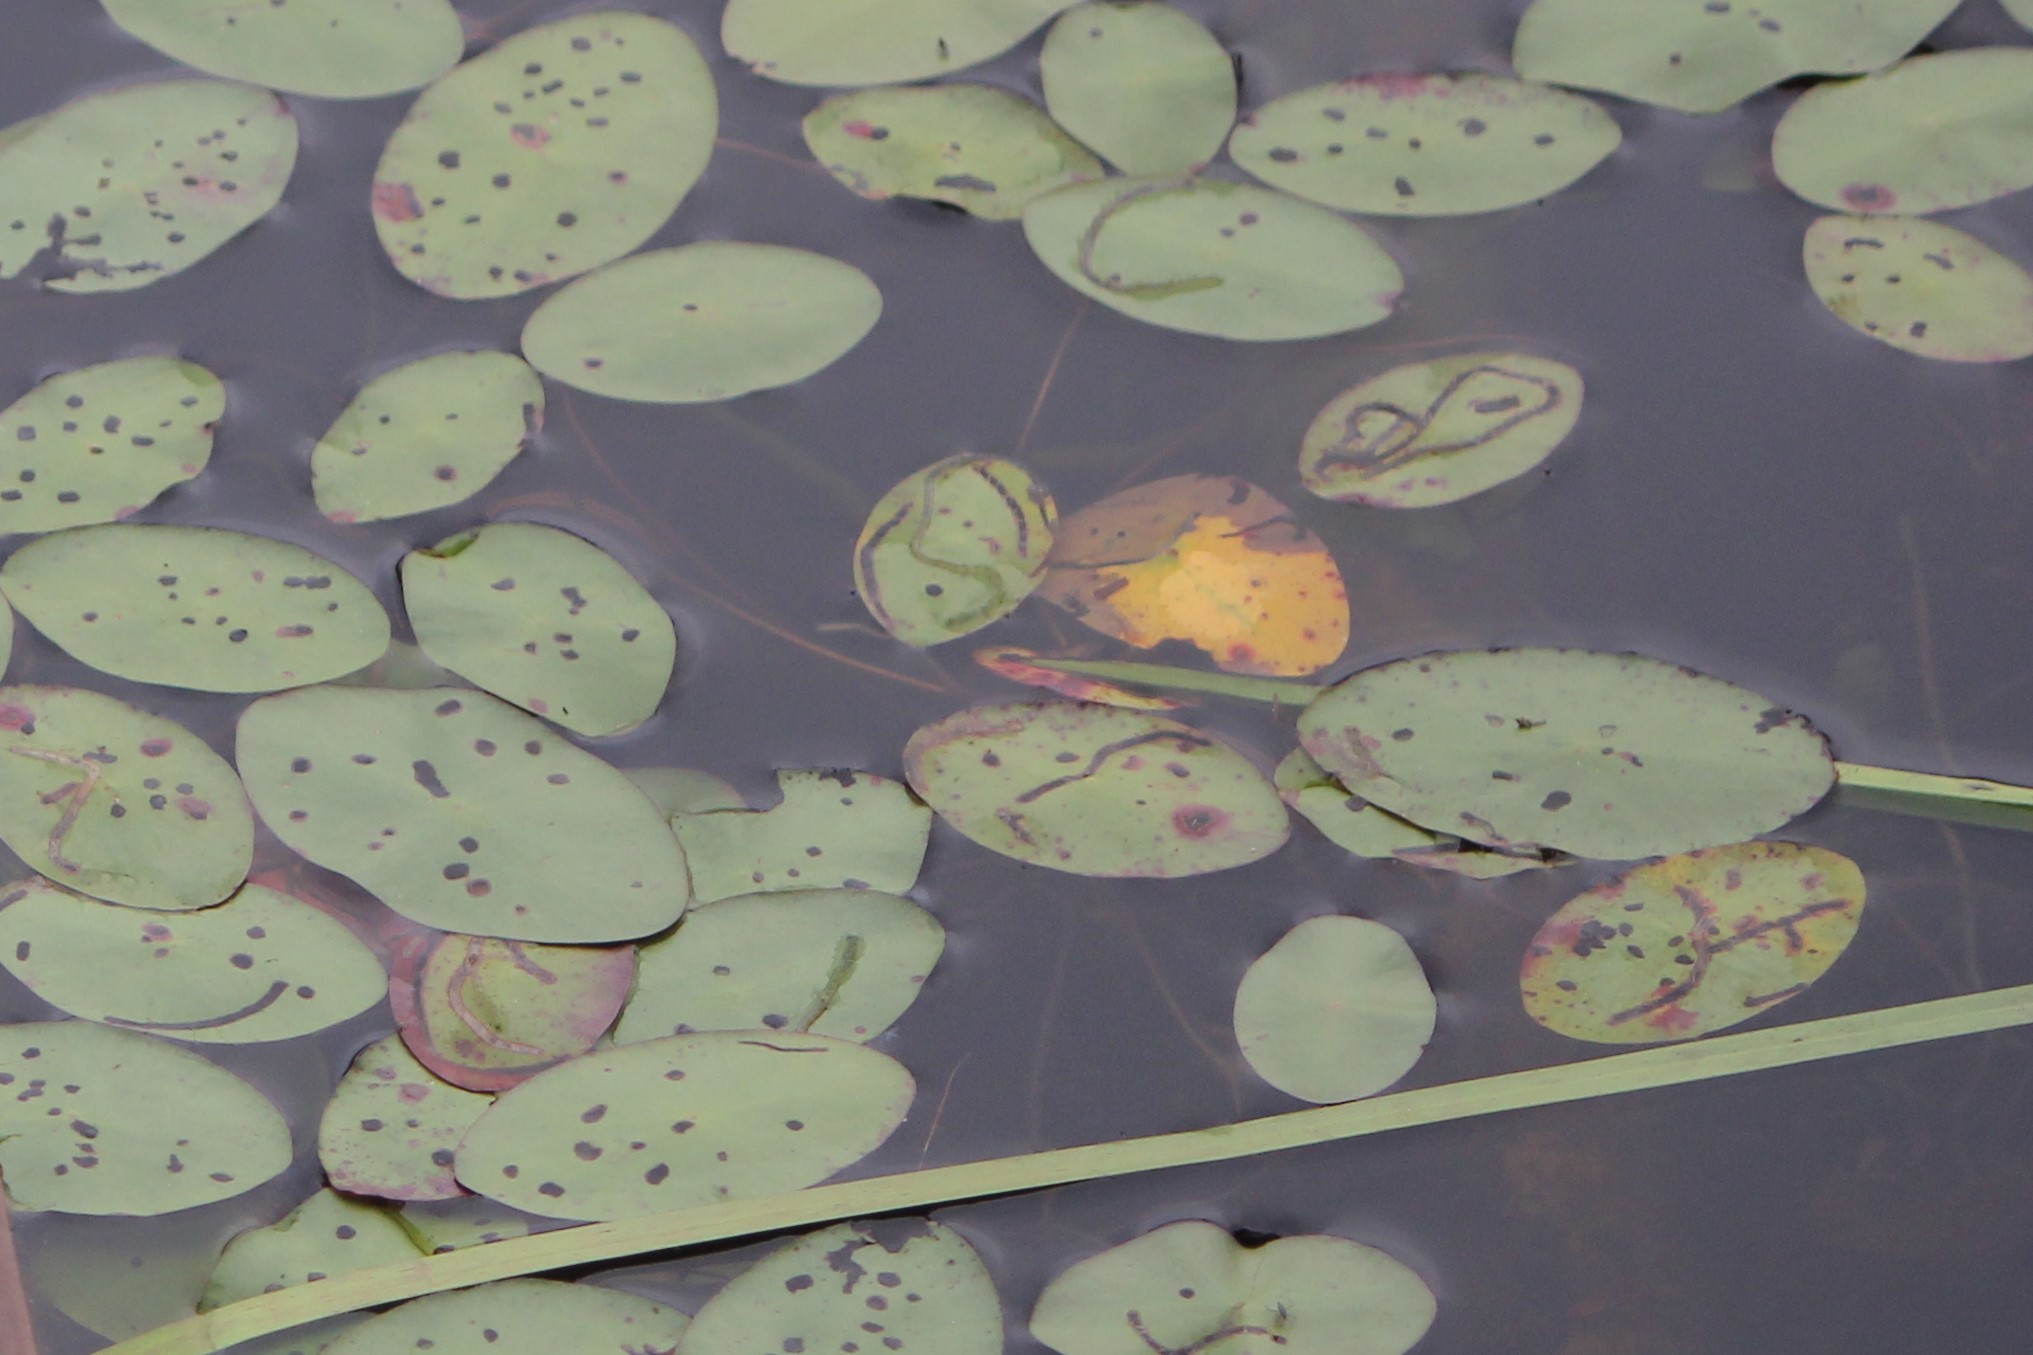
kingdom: Animalia
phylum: Arthropoda
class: Insecta
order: Diptera
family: Chironomidae
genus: Polypedilum
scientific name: Polypedilum braseniae
